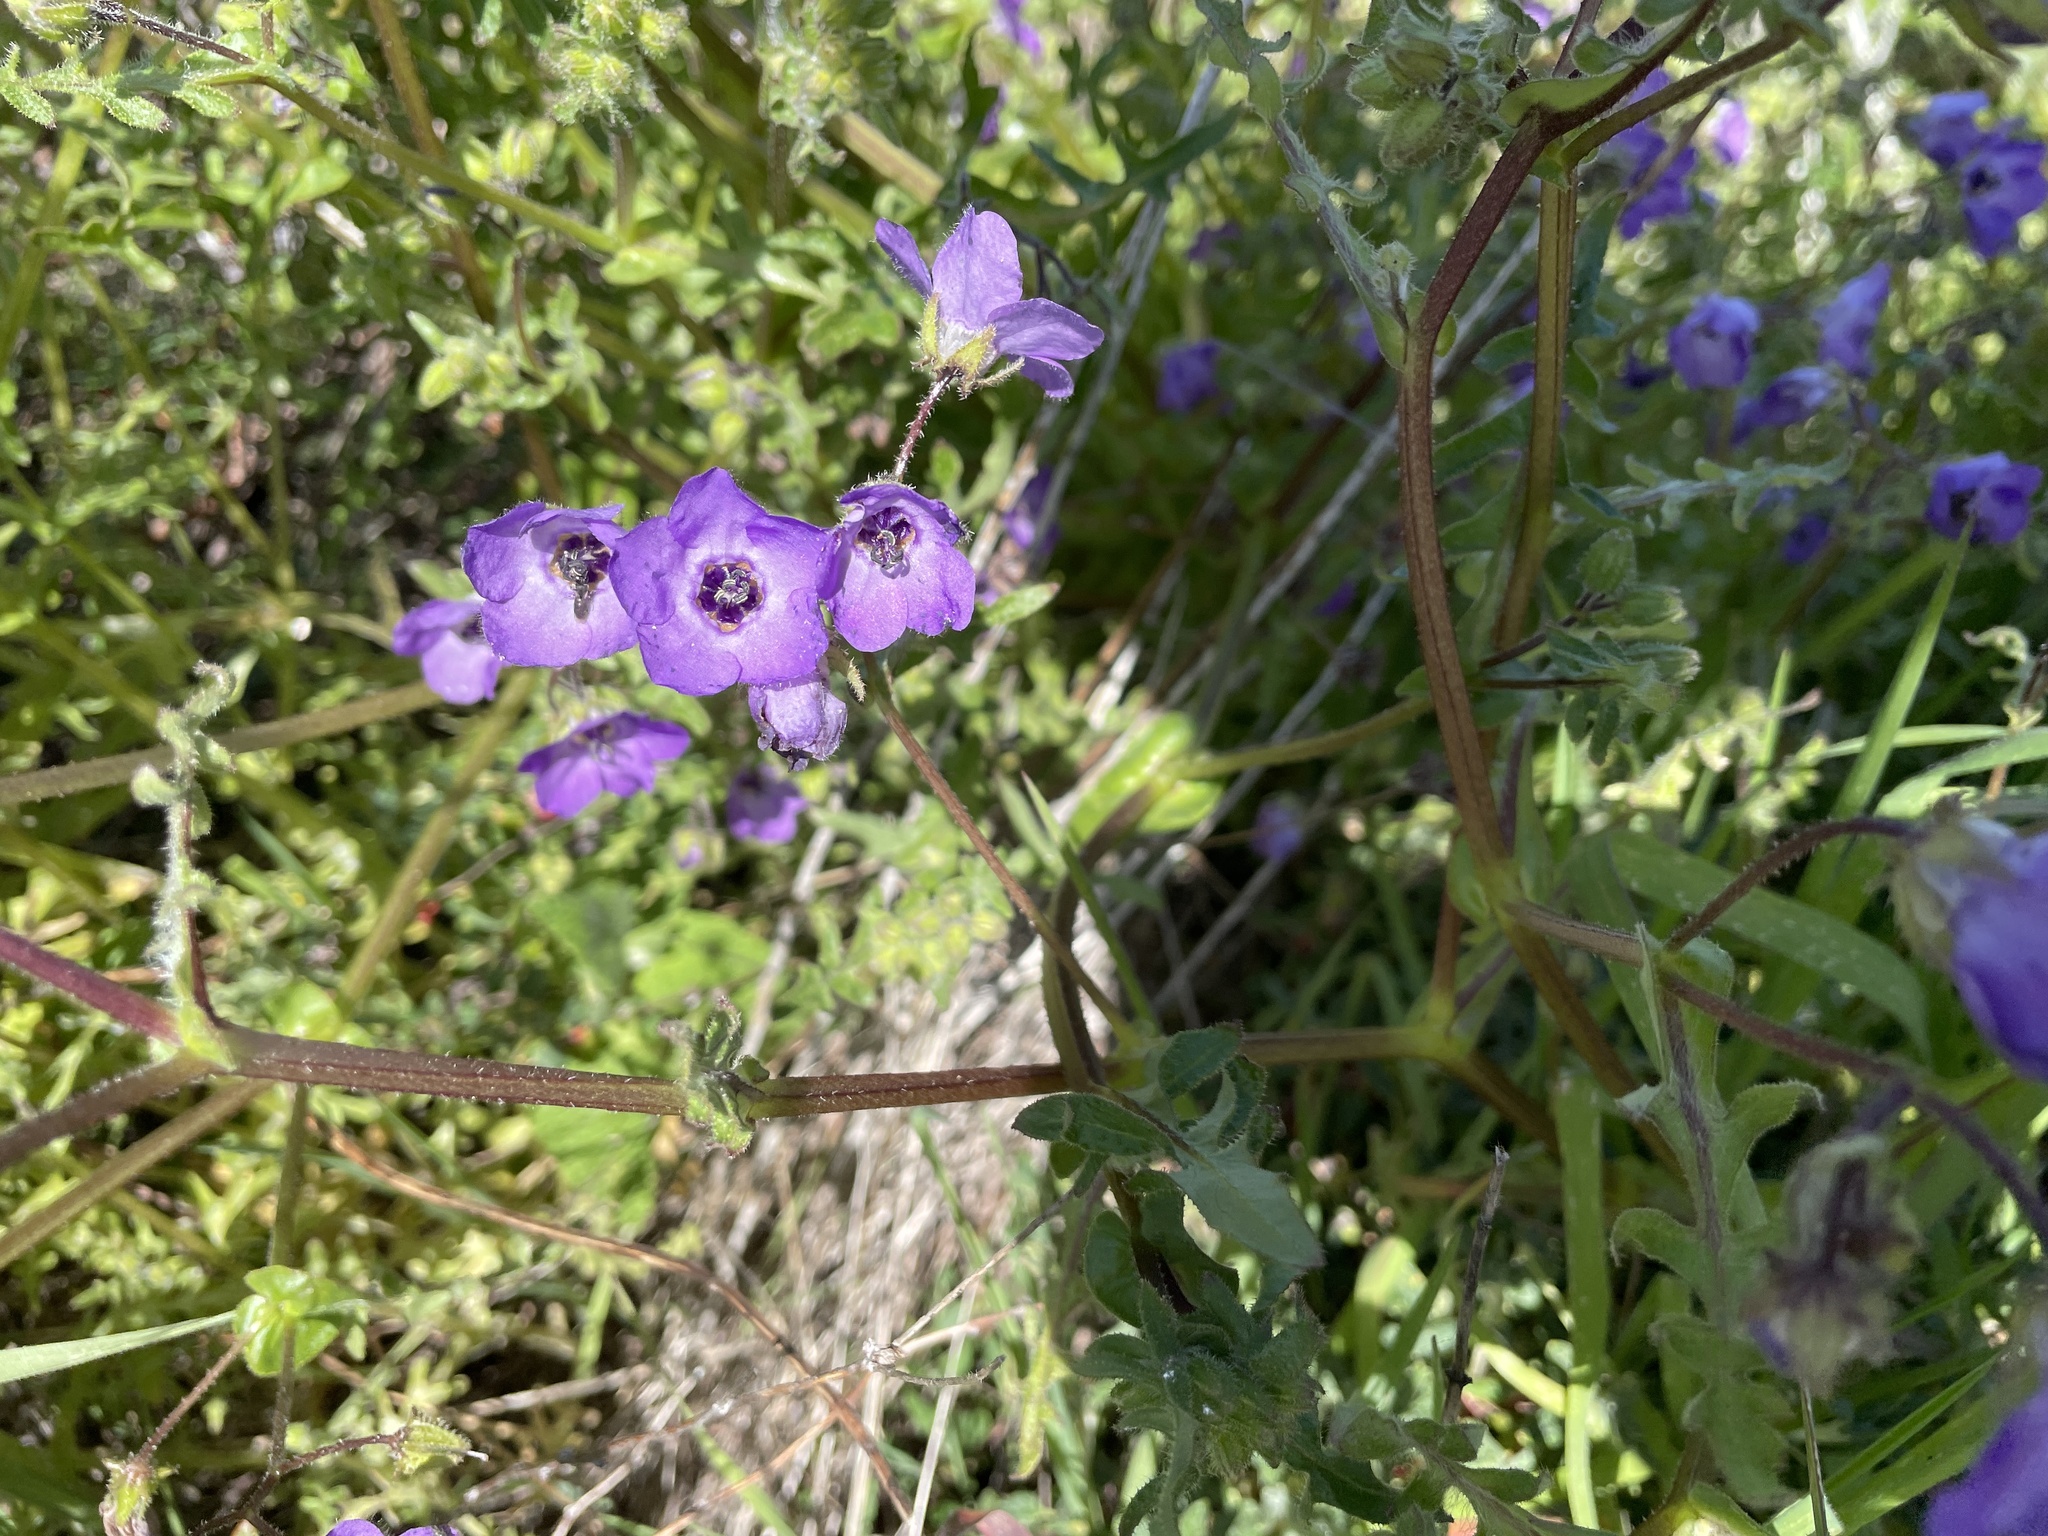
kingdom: Plantae
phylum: Tracheophyta
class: Magnoliopsida
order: Boraginales
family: Hydrophyllaceae
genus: Pholistoma
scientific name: Pholistoma auritum
